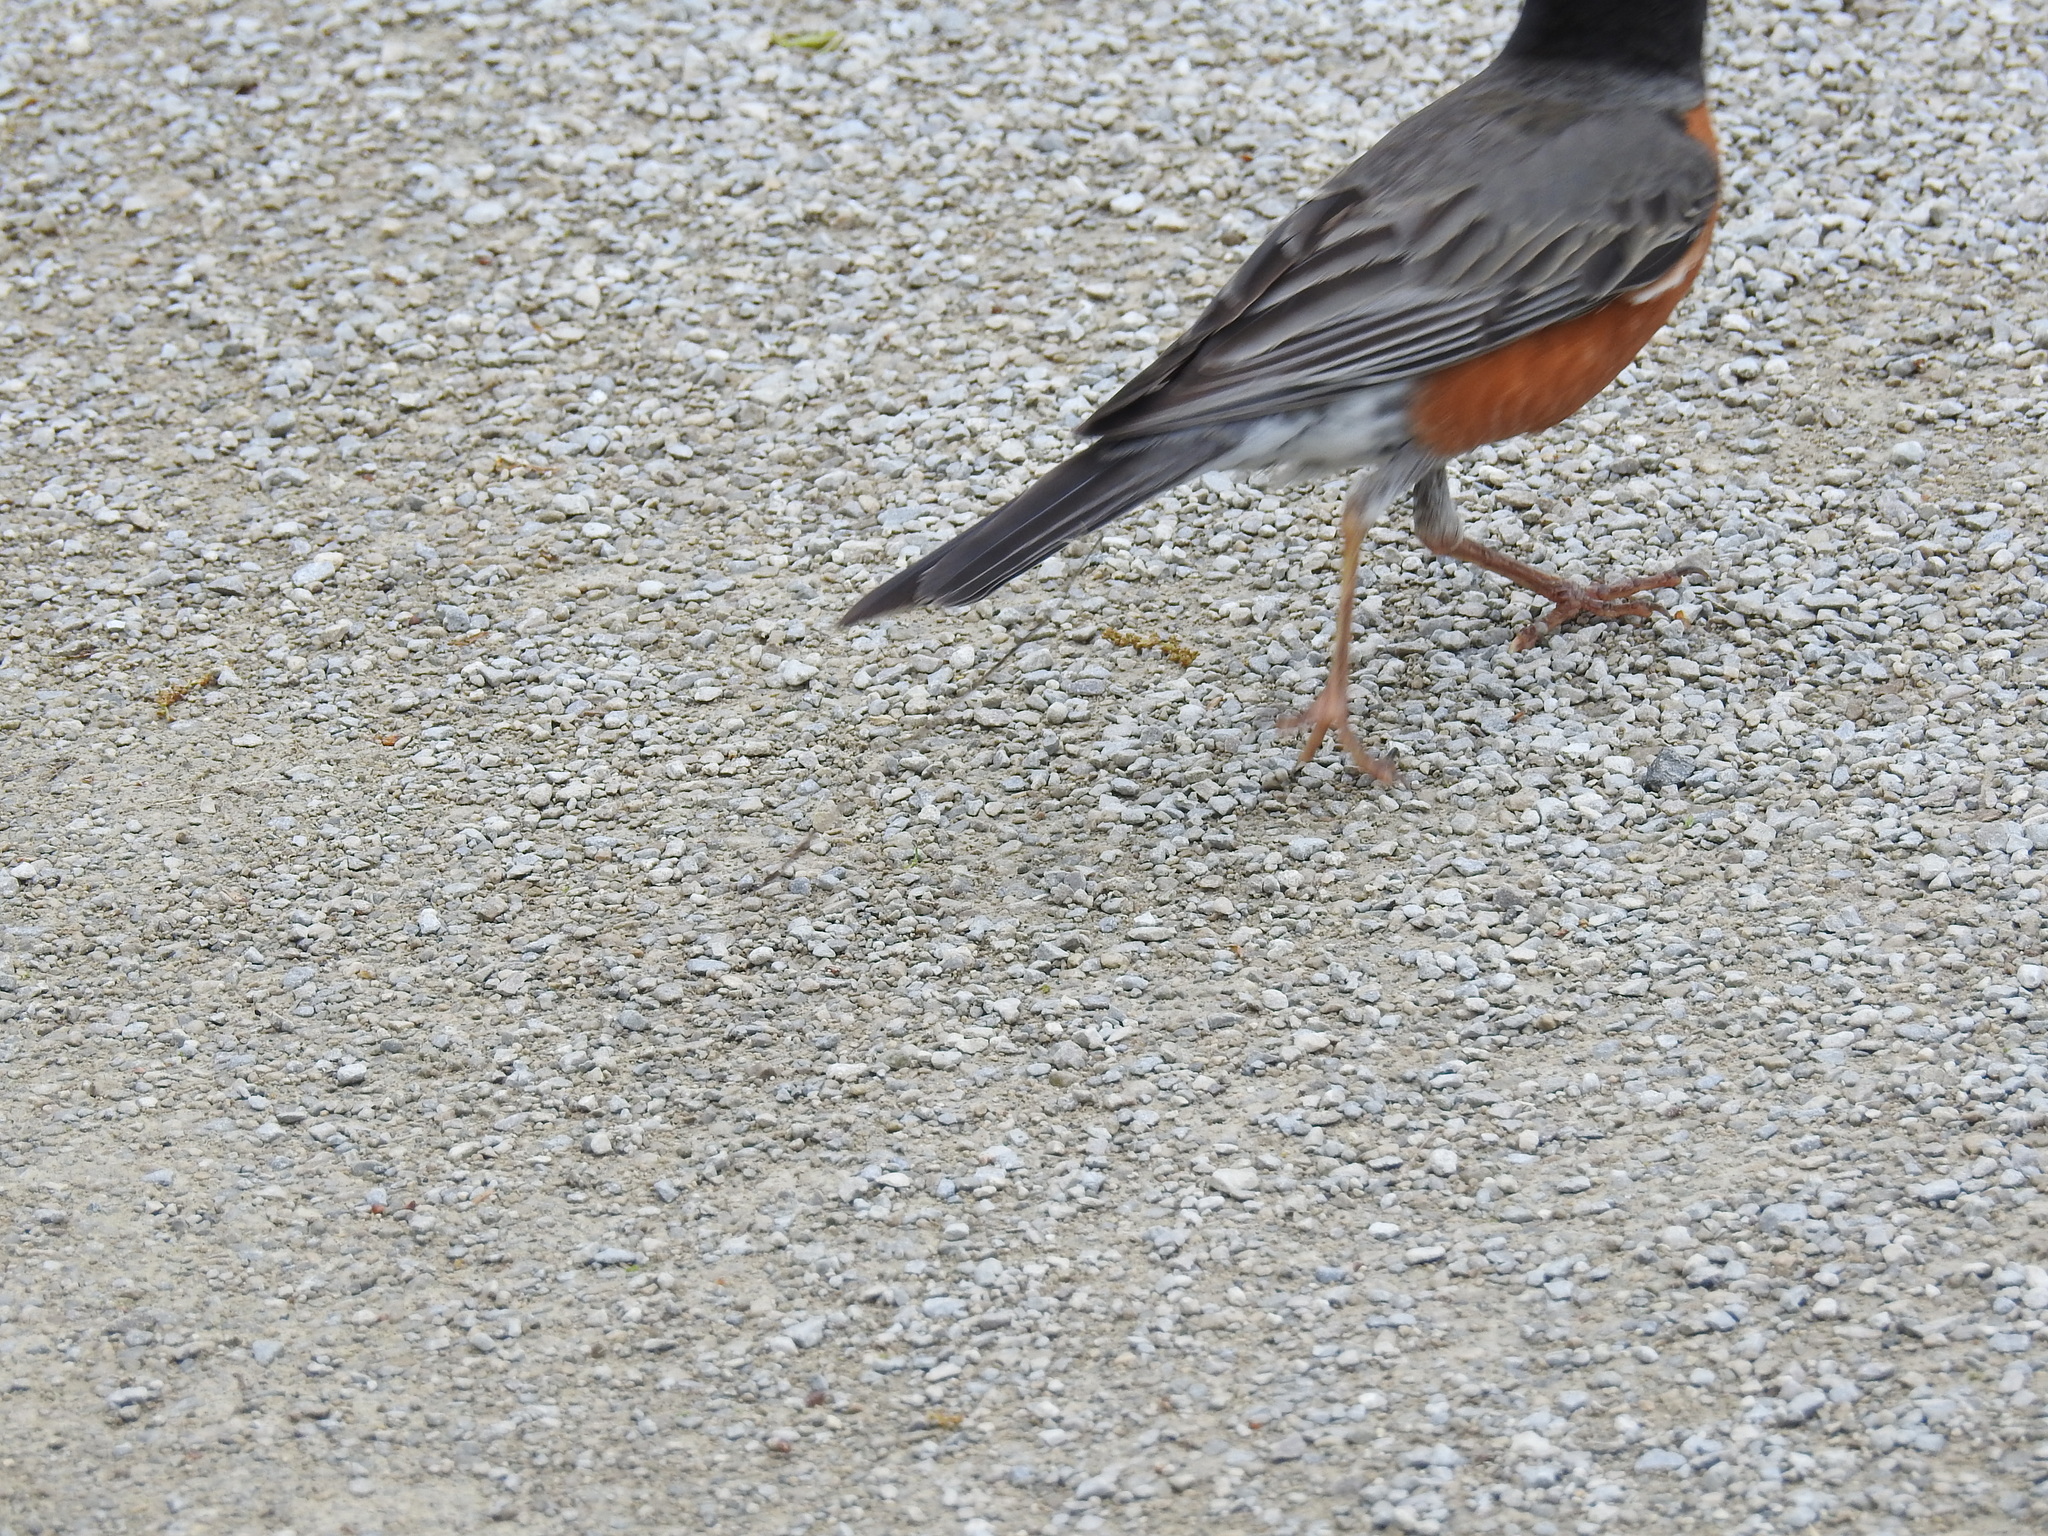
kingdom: Animalia
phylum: Chordata
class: Aves
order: Passeriformes
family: Turdidae
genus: Turdus
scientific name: Turdus migratorius
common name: American robin
